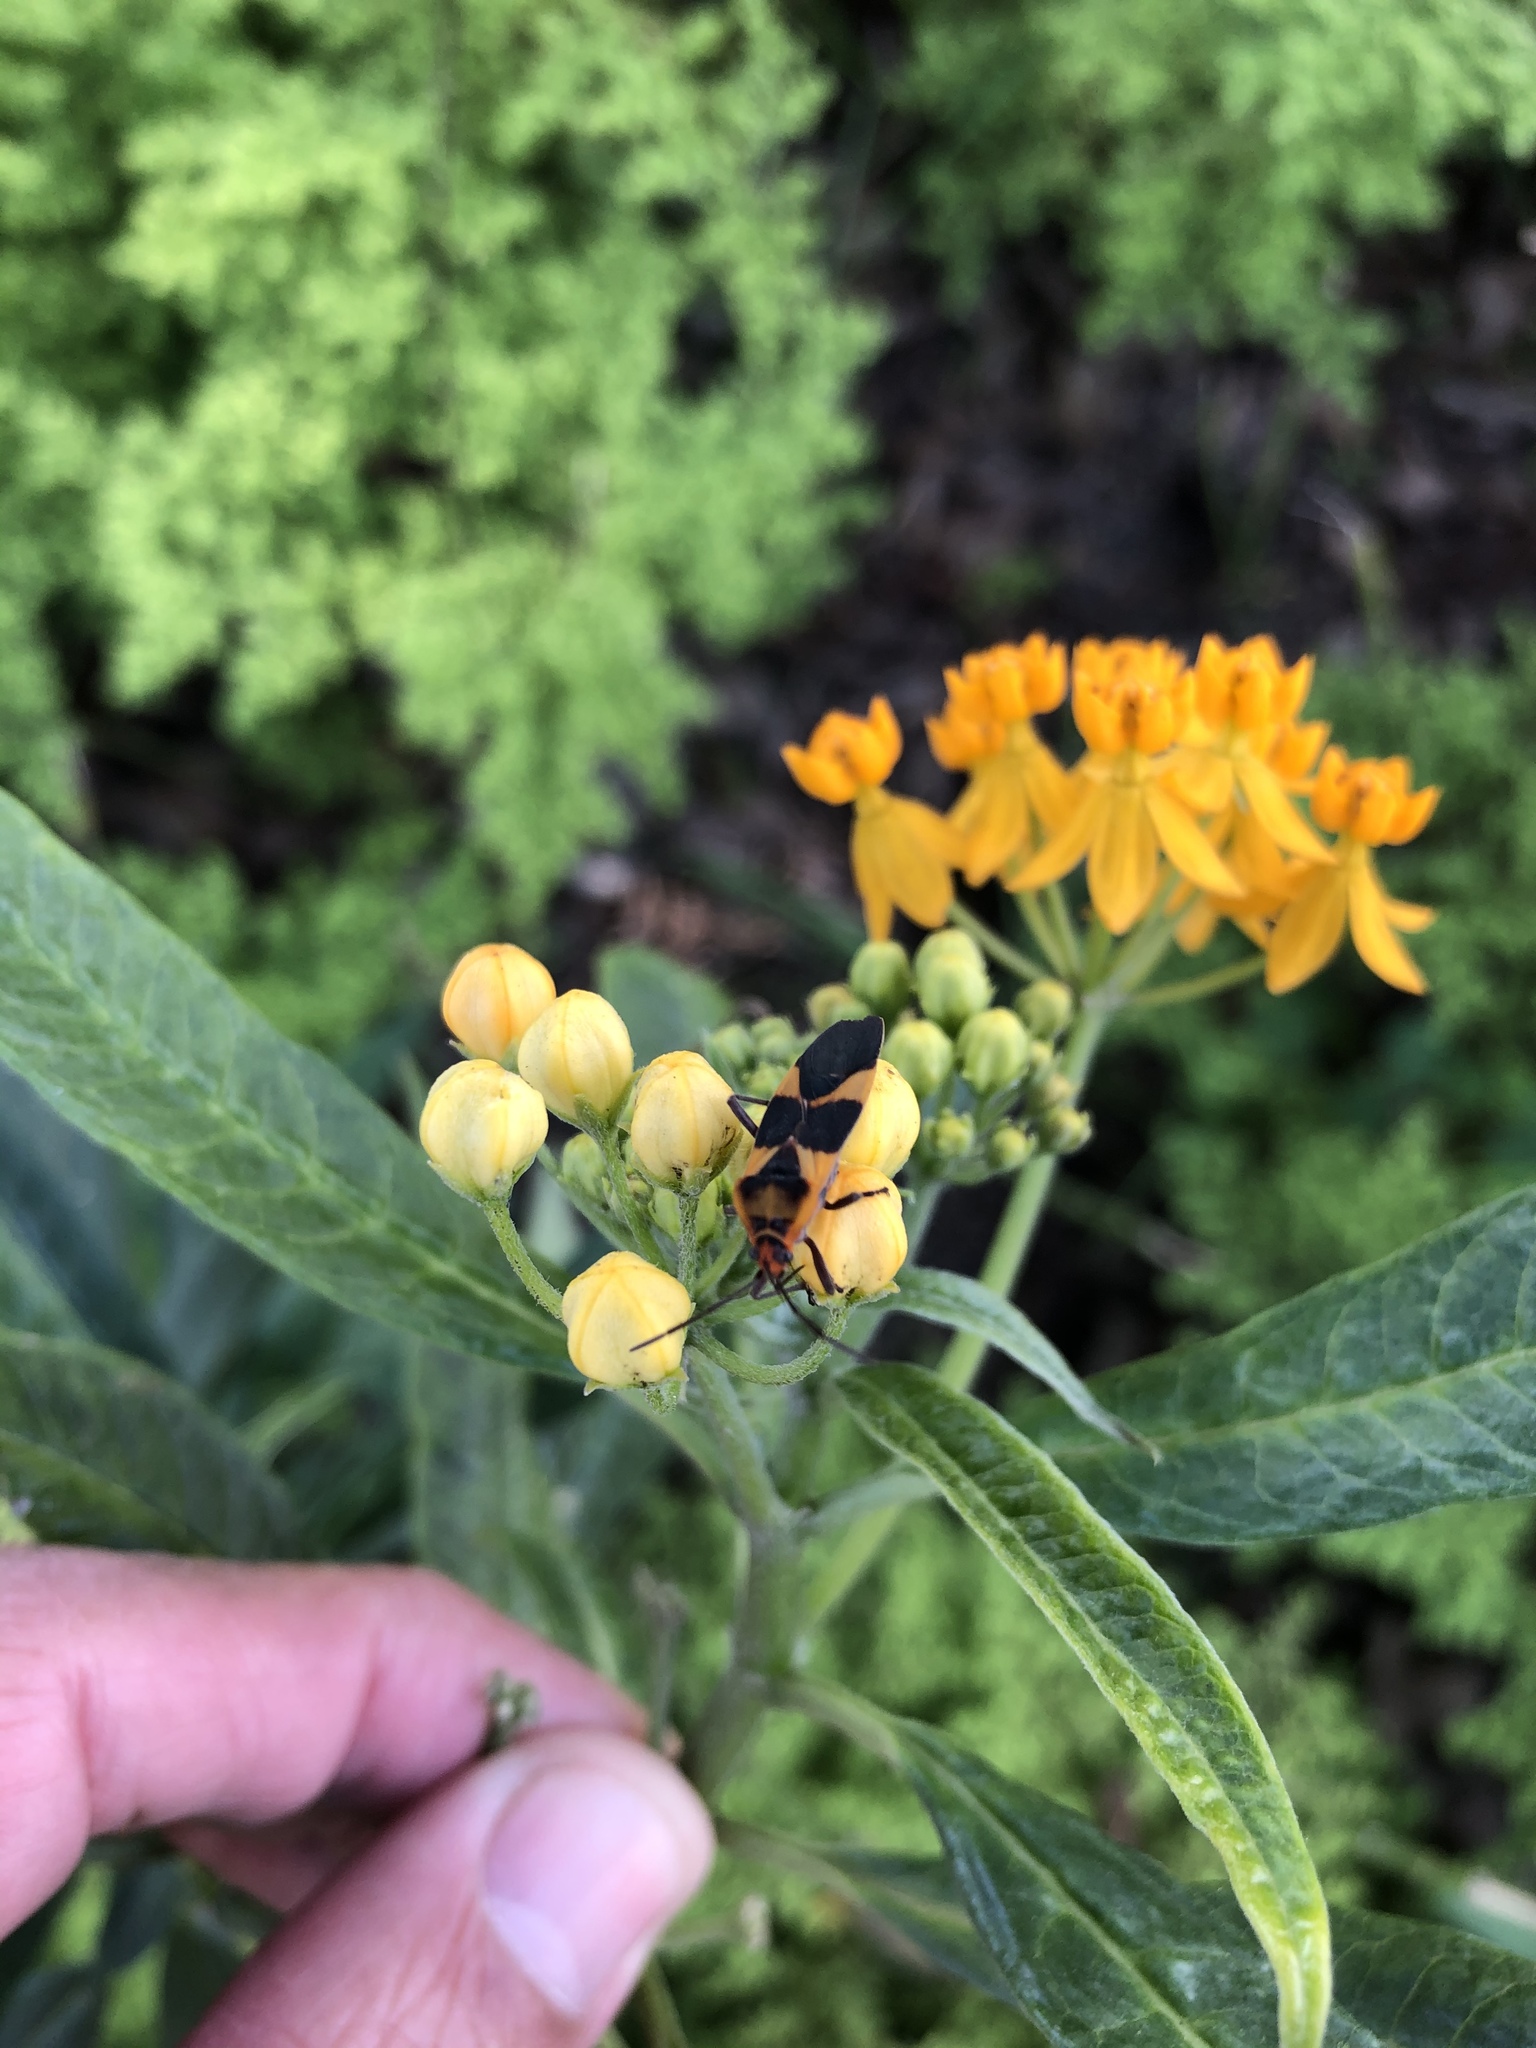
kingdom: Animalia
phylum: Arthropoda
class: Insecta
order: Hemiptera
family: Lygaeidae
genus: Oncopeltus
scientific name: Oncopeltus zonatus
